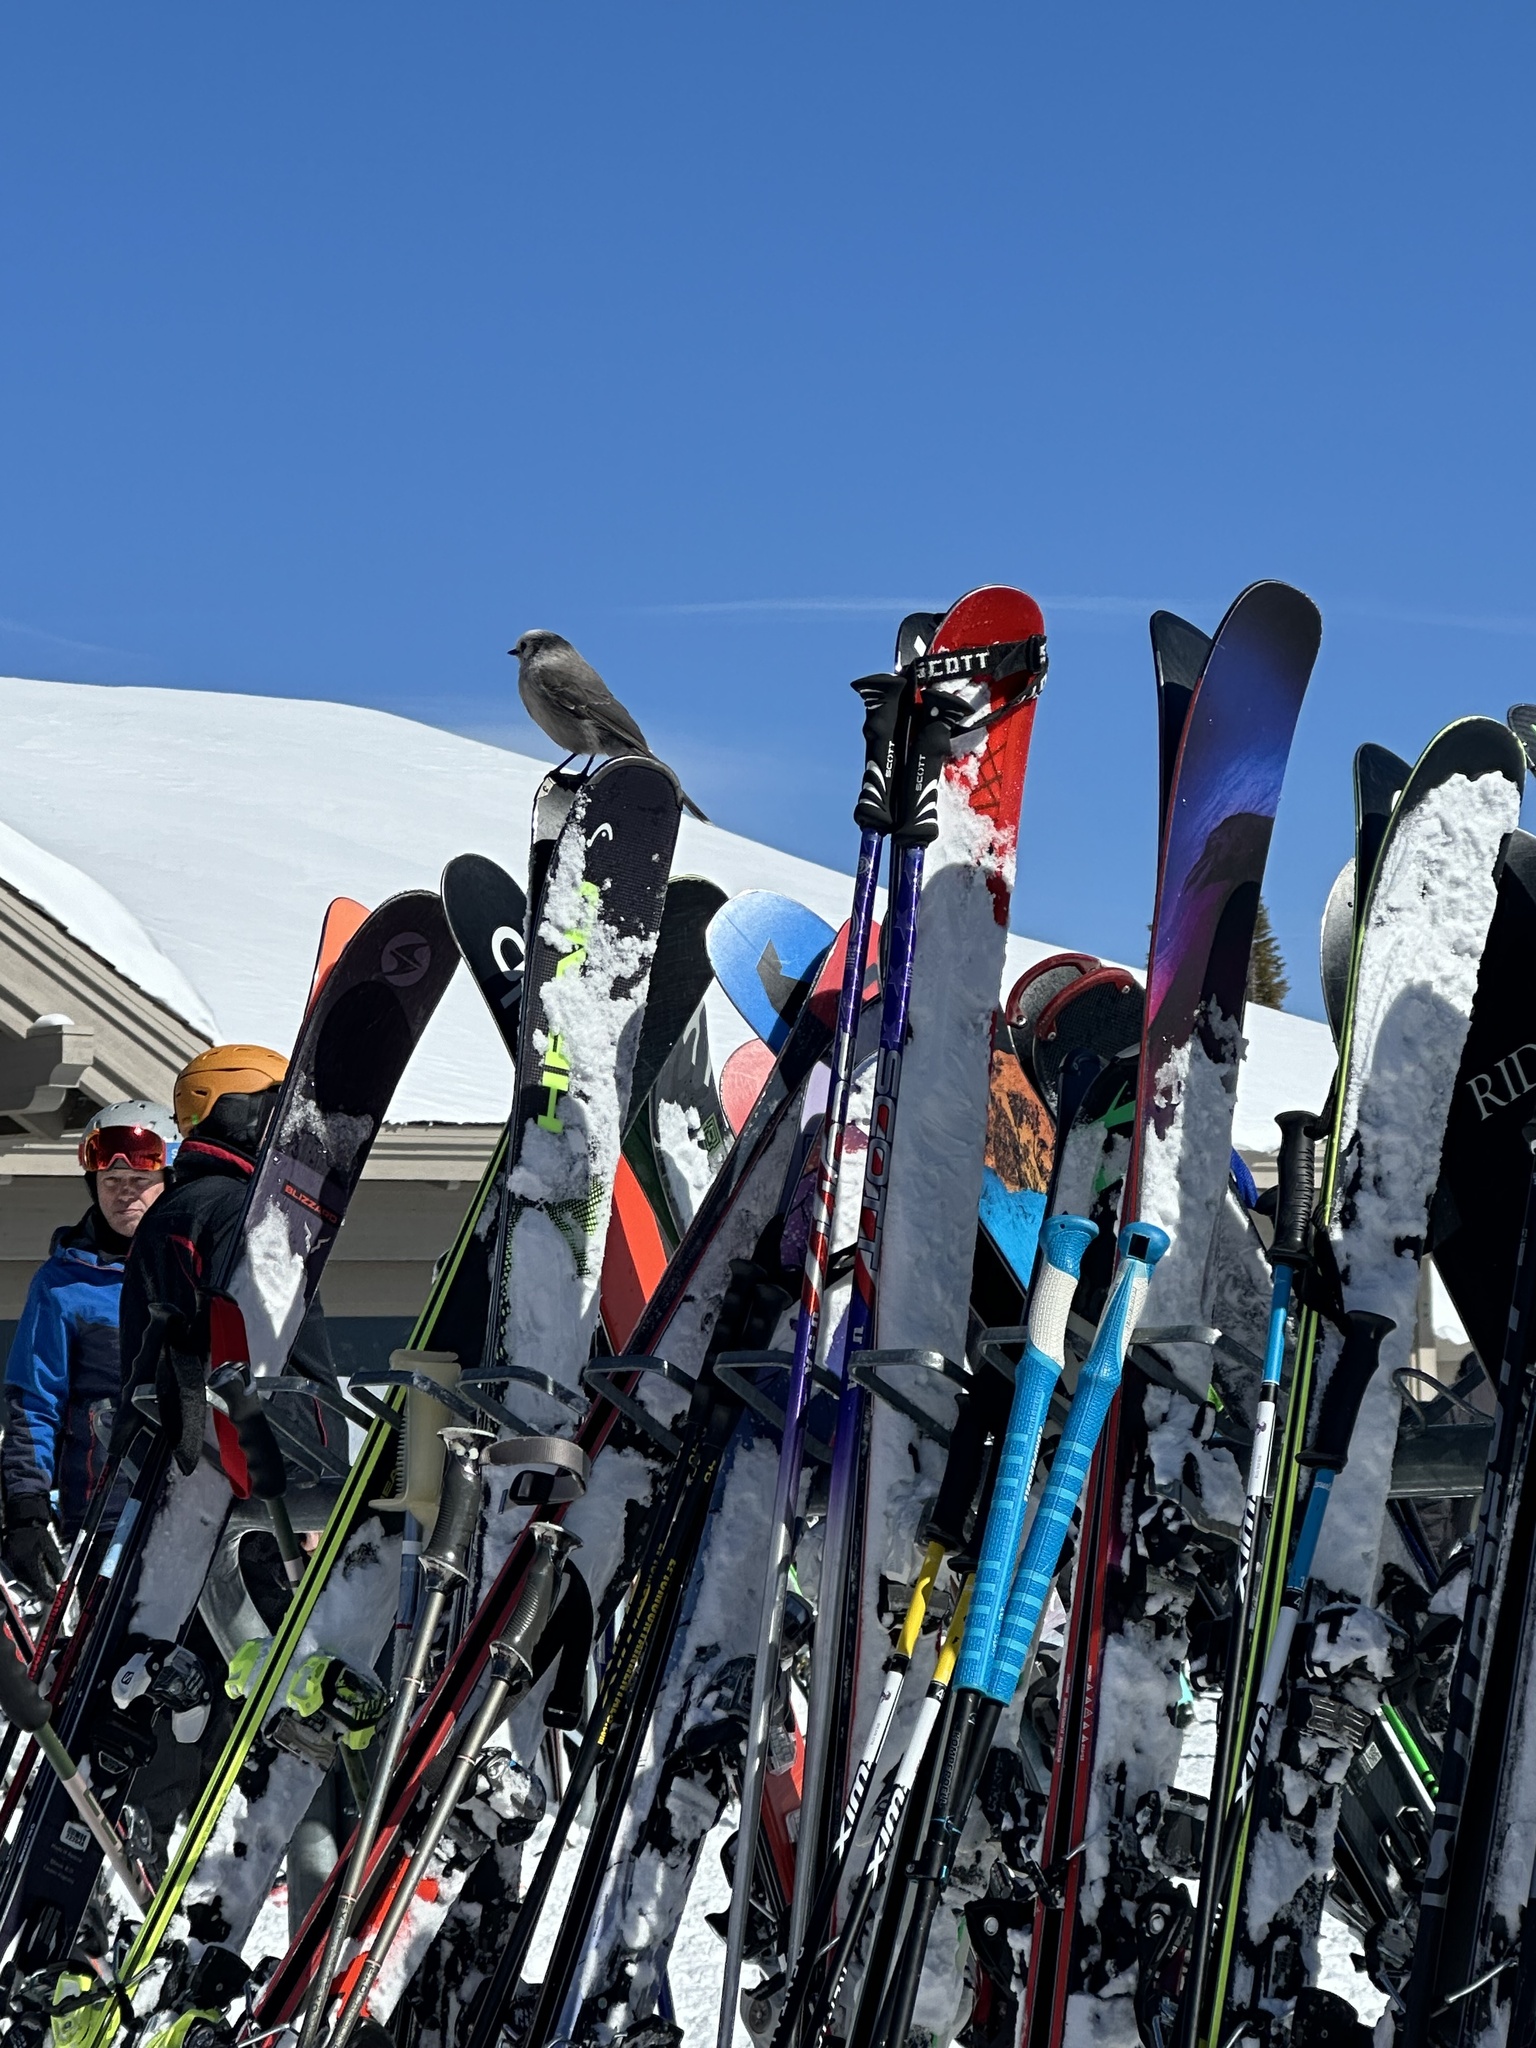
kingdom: Animalia
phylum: Chordata
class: Aves
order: Passeriformes
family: Corvidae
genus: Perisoreus
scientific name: Perisoreus canadensis
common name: Gray jay
